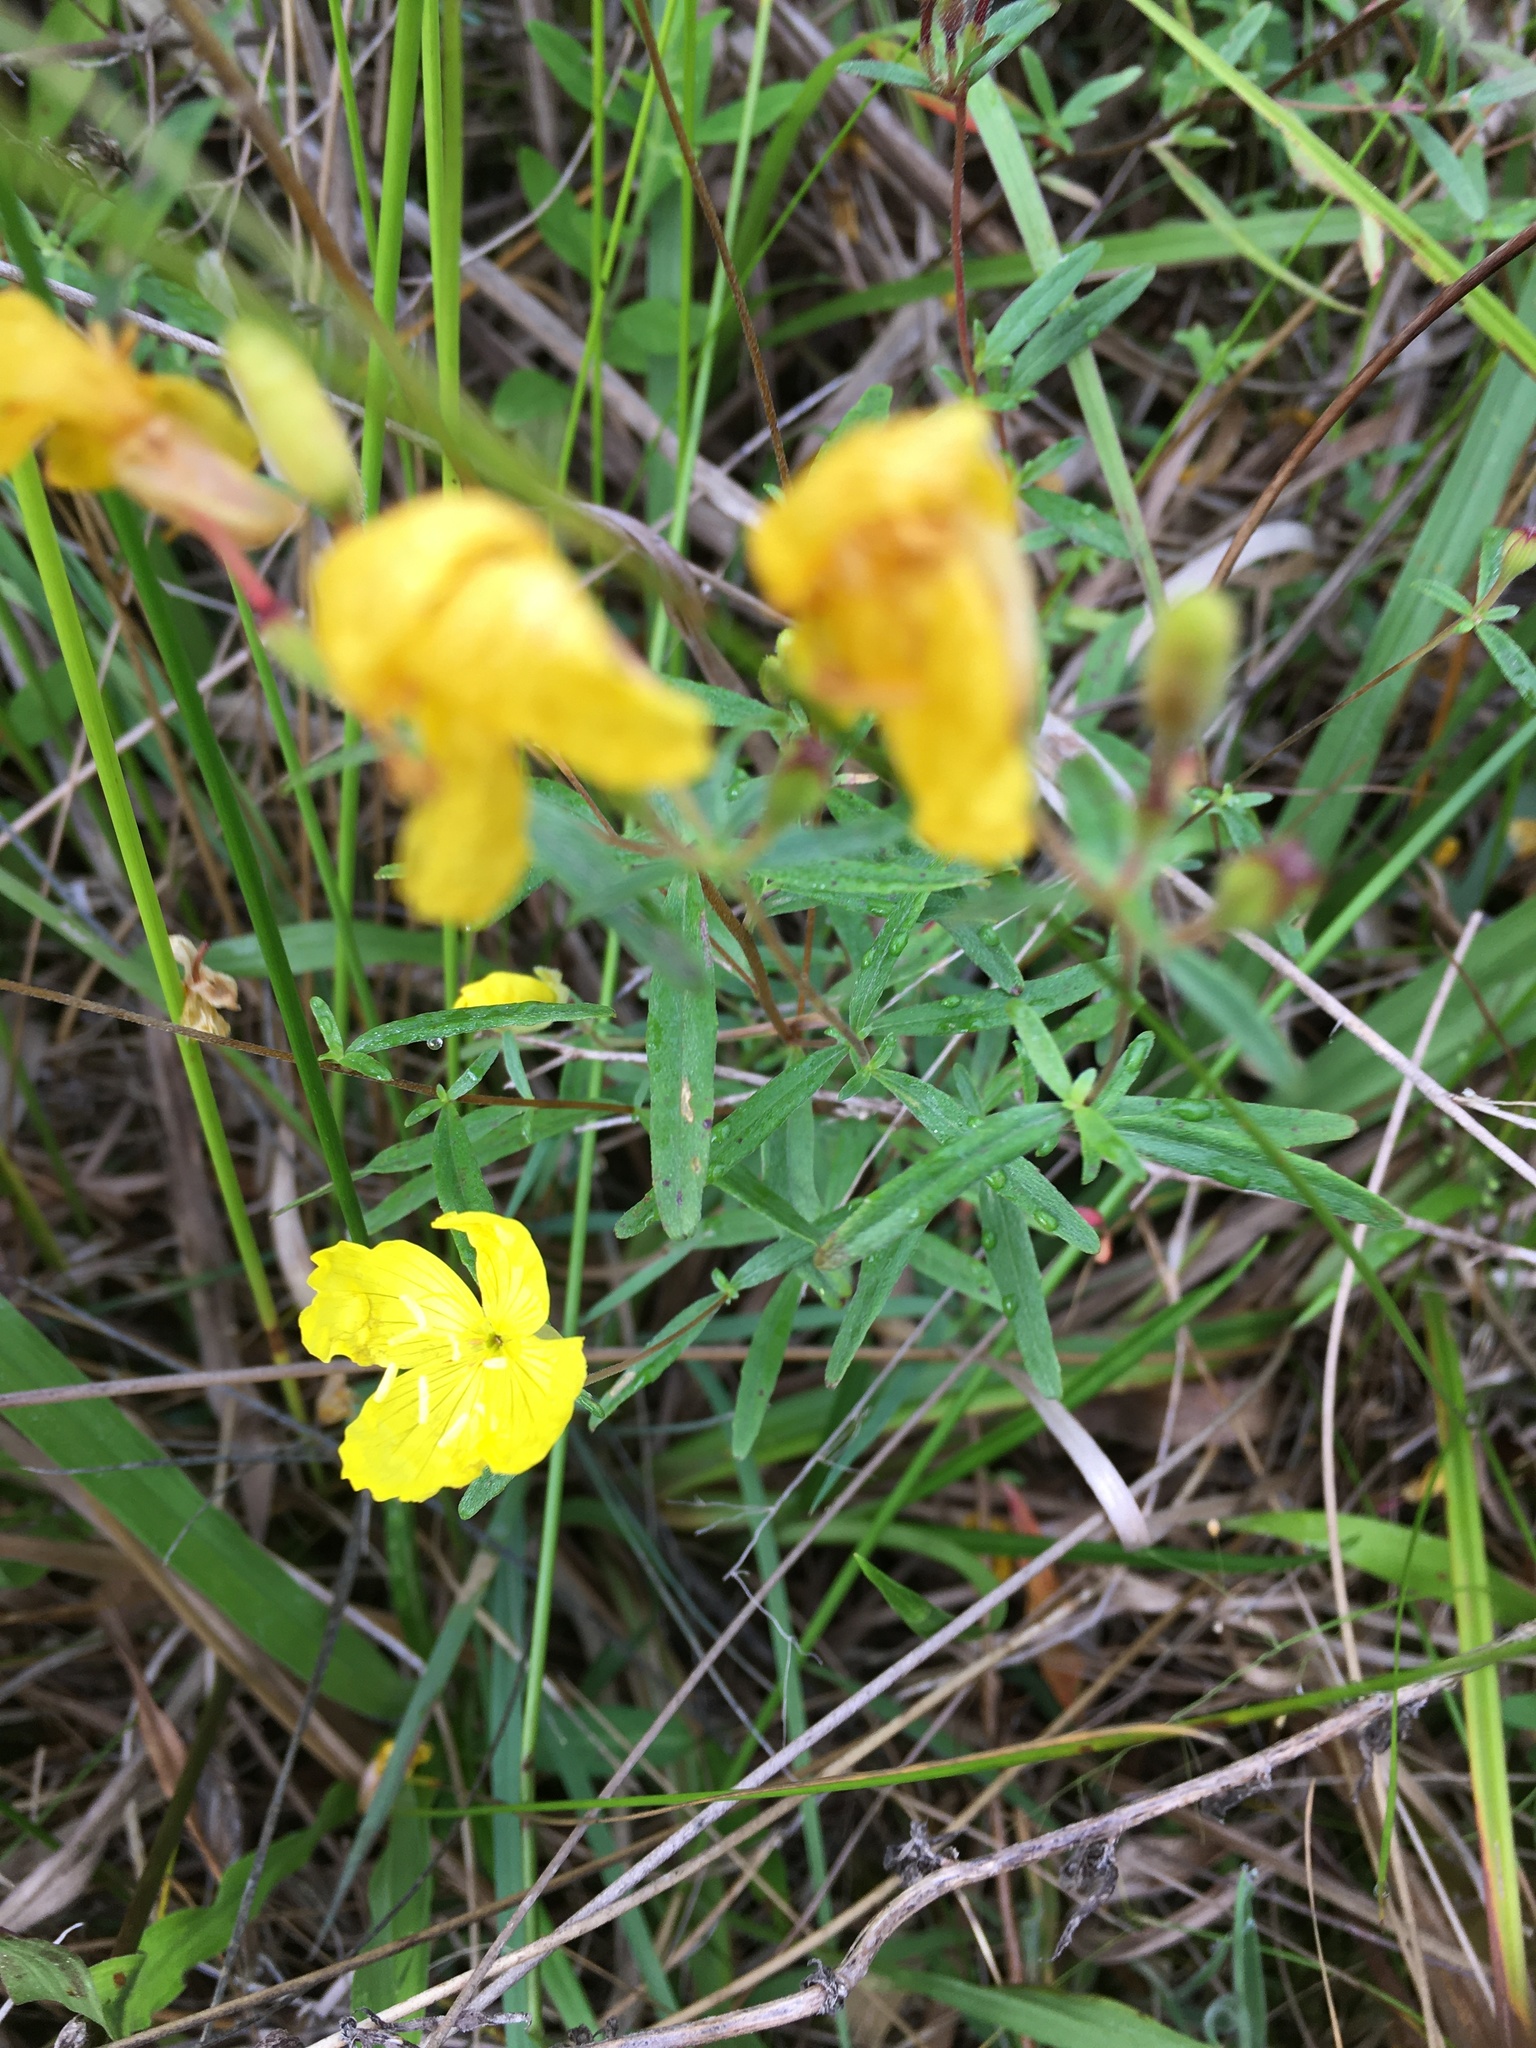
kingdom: Plantae
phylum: Tracheophyta
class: Magnoliopsida
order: Myrtales
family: Onagraceae
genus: Oenothera
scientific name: Oenothera fruticosa
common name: Southern sundrops
